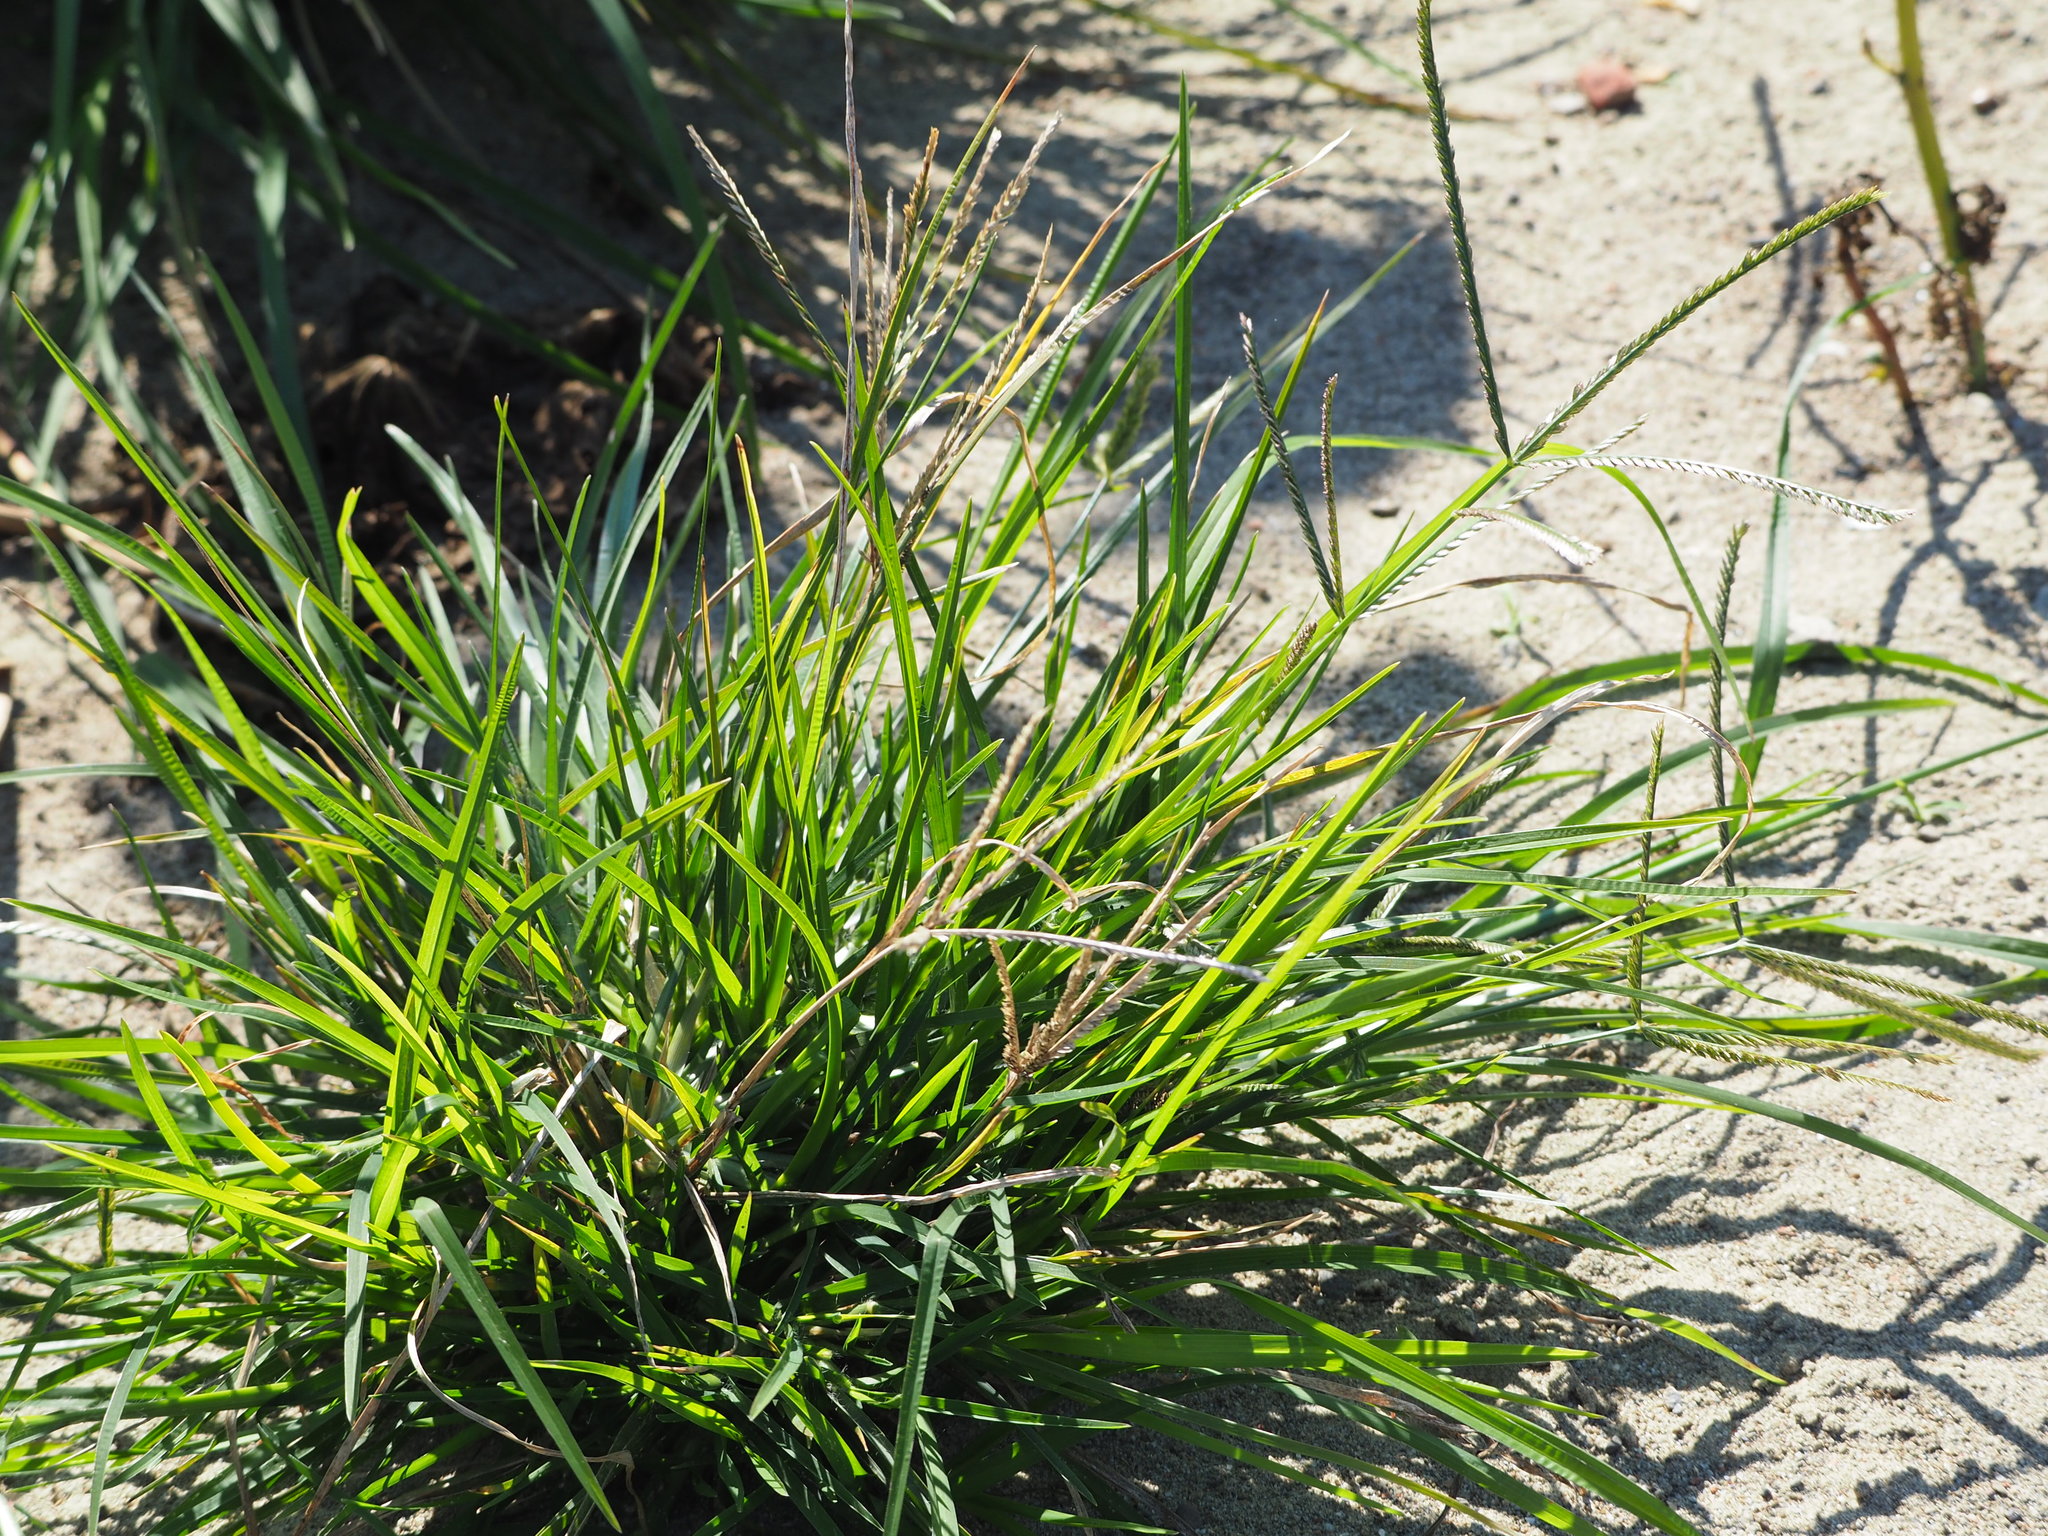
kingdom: Plantae
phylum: Tracheophyta
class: Liliopsida
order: Poales
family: Poaceae
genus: Eleusine
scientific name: Eleusine indica
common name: Yard-grass
